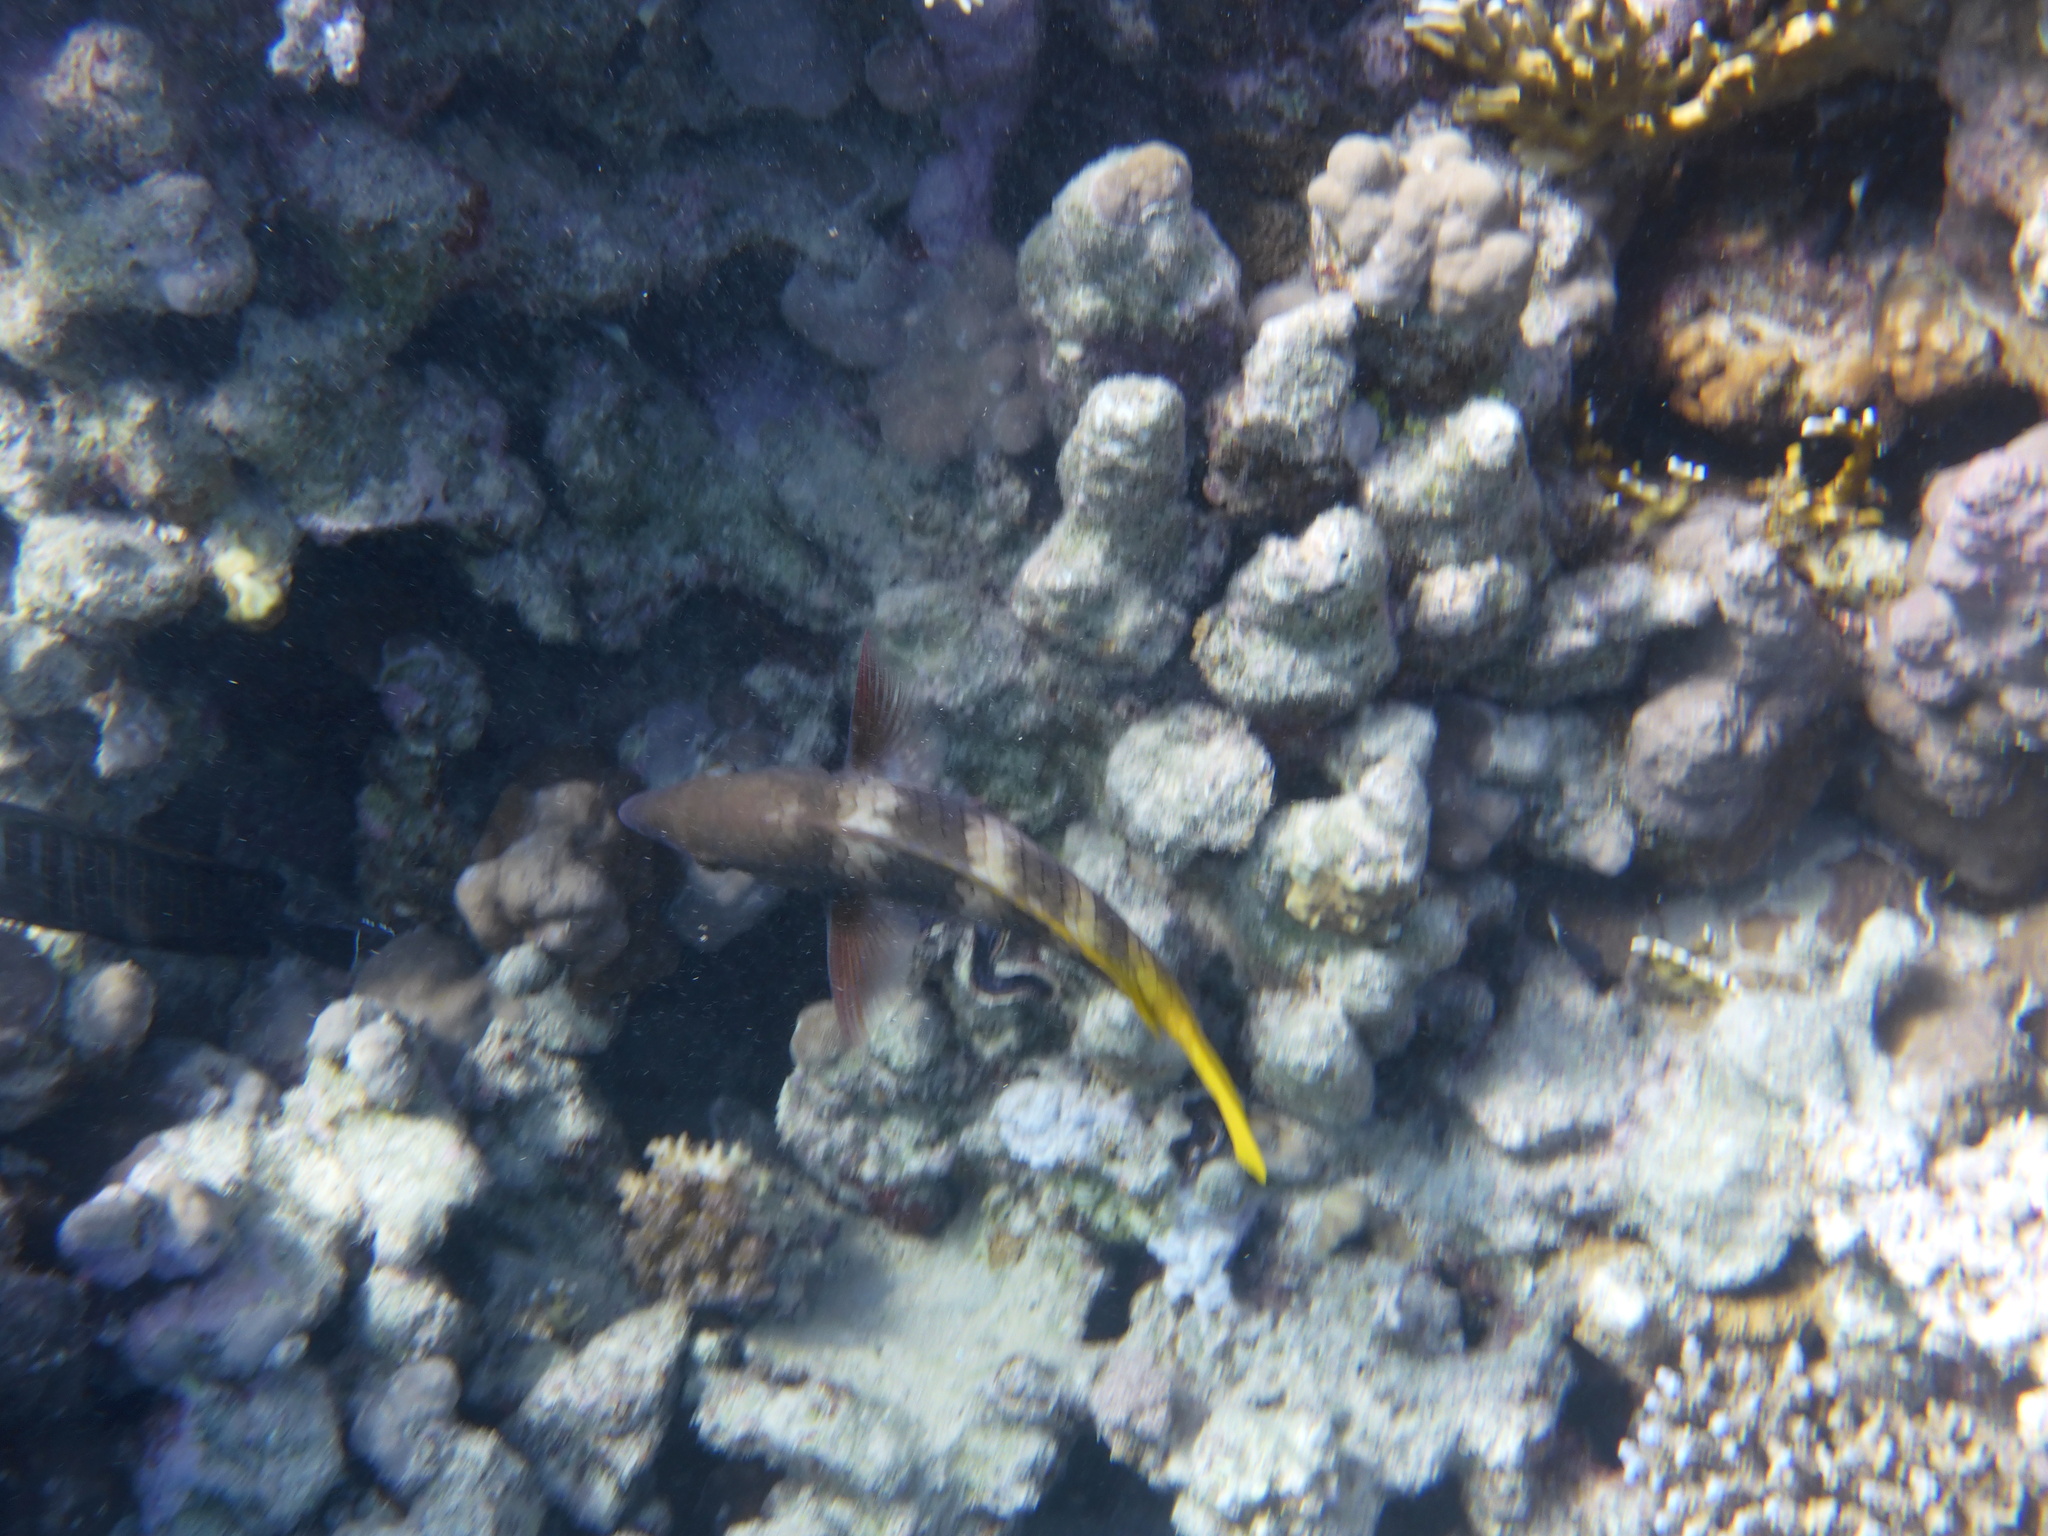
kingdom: Animalia
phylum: Chordata
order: Perciformes
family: Scaridae
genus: Scarus
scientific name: Scarus ferrugineus
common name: Rusty parrotfish
